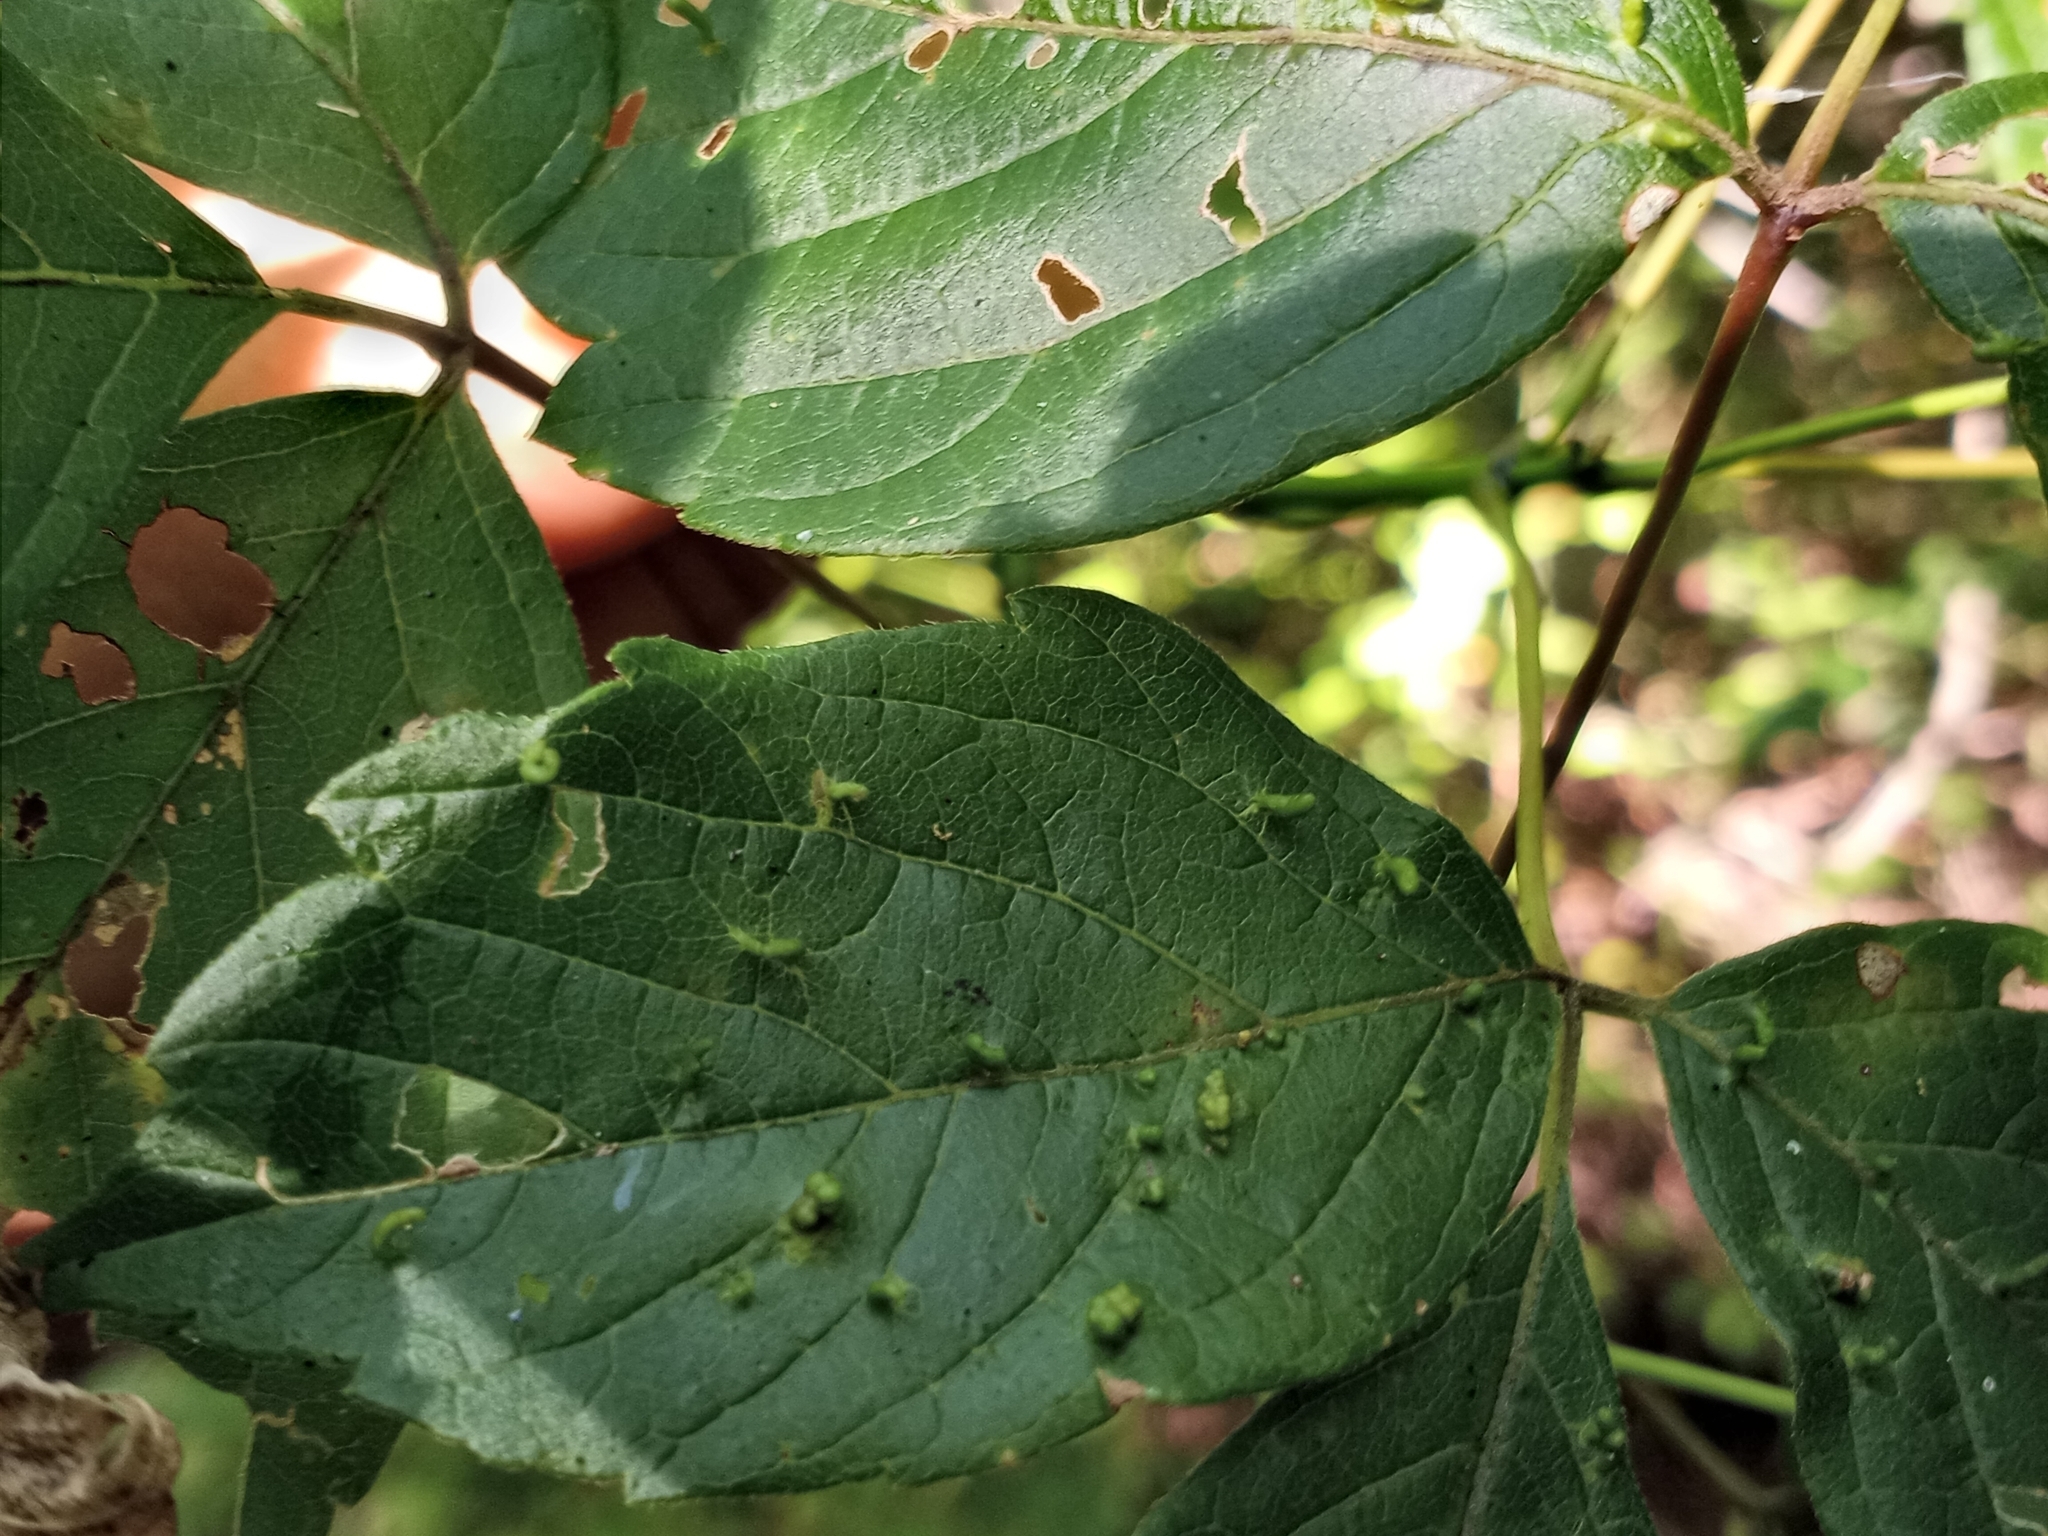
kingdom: Animalia
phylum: Arthropoda
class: Arachnida
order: Trombidiformes
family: Eriophyidae
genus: Aceria
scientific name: Aceria
